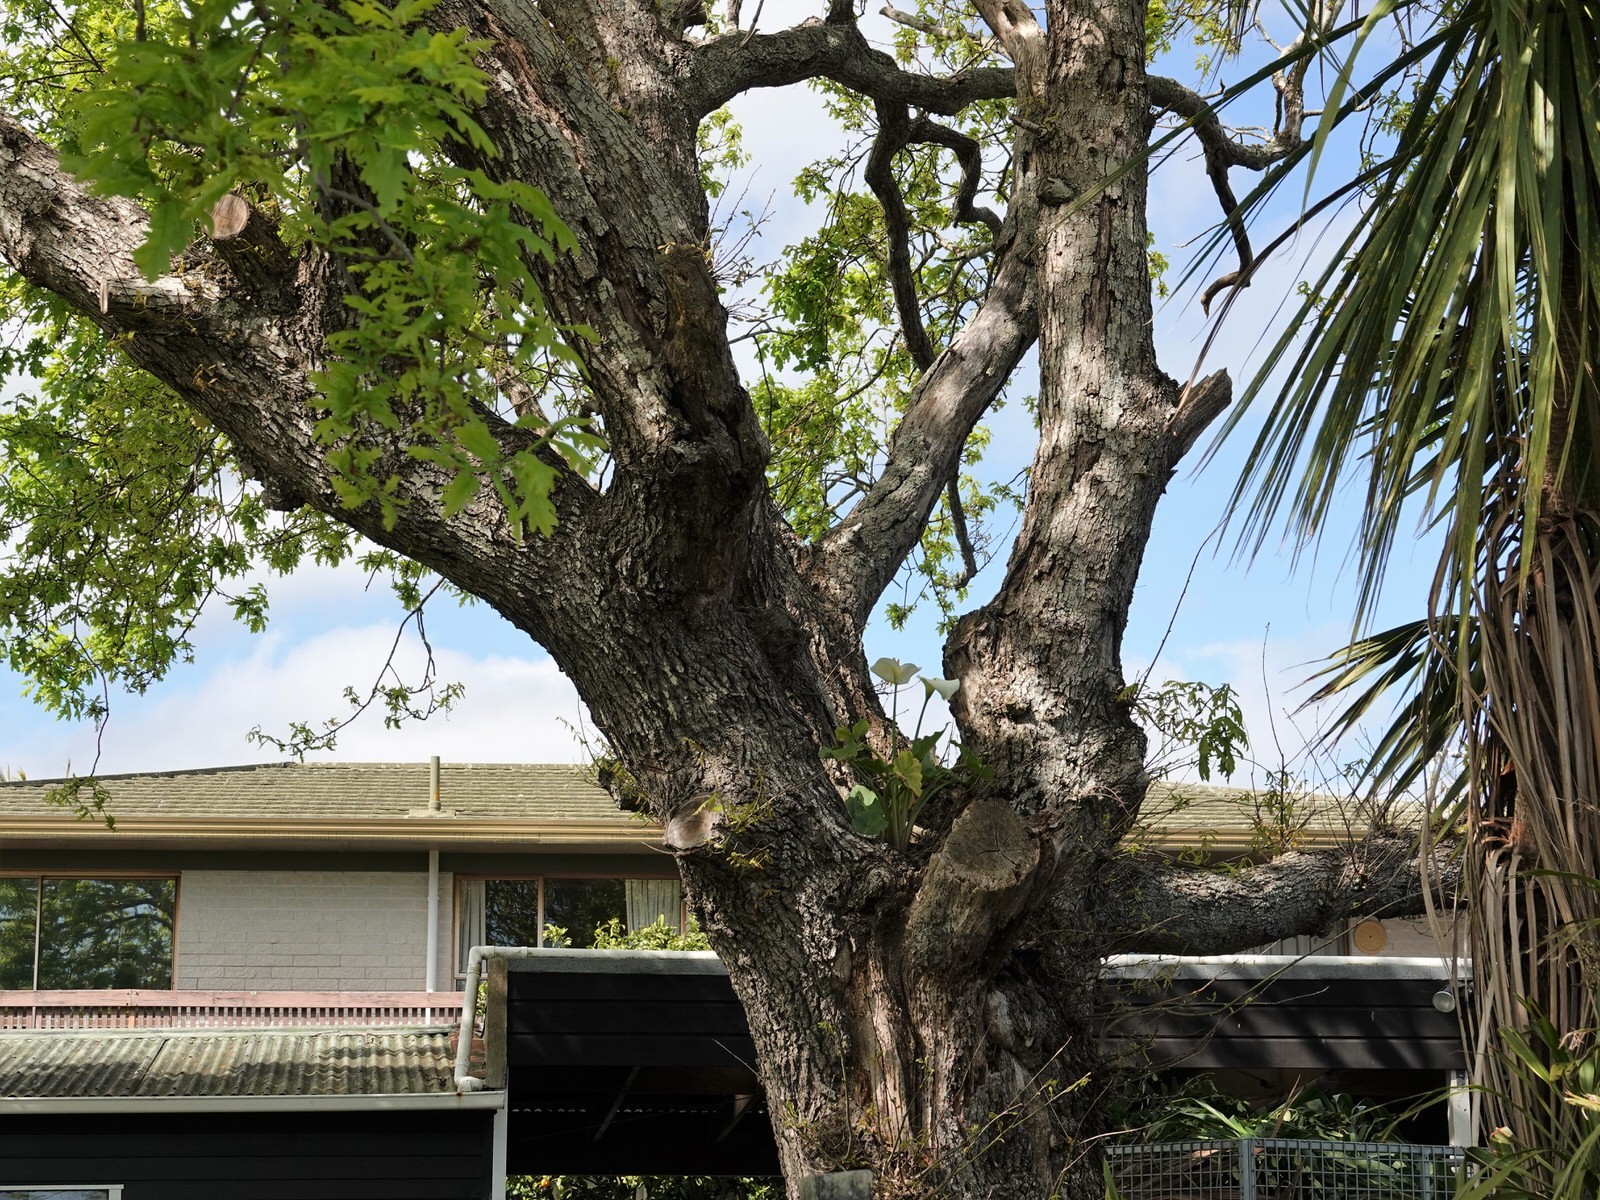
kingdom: Plantae
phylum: Tracheophyta
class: Liliopsida
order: Alismatales
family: Araceae
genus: Zantedeschia
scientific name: Zantedeschia aethiopica
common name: Altar-lily
